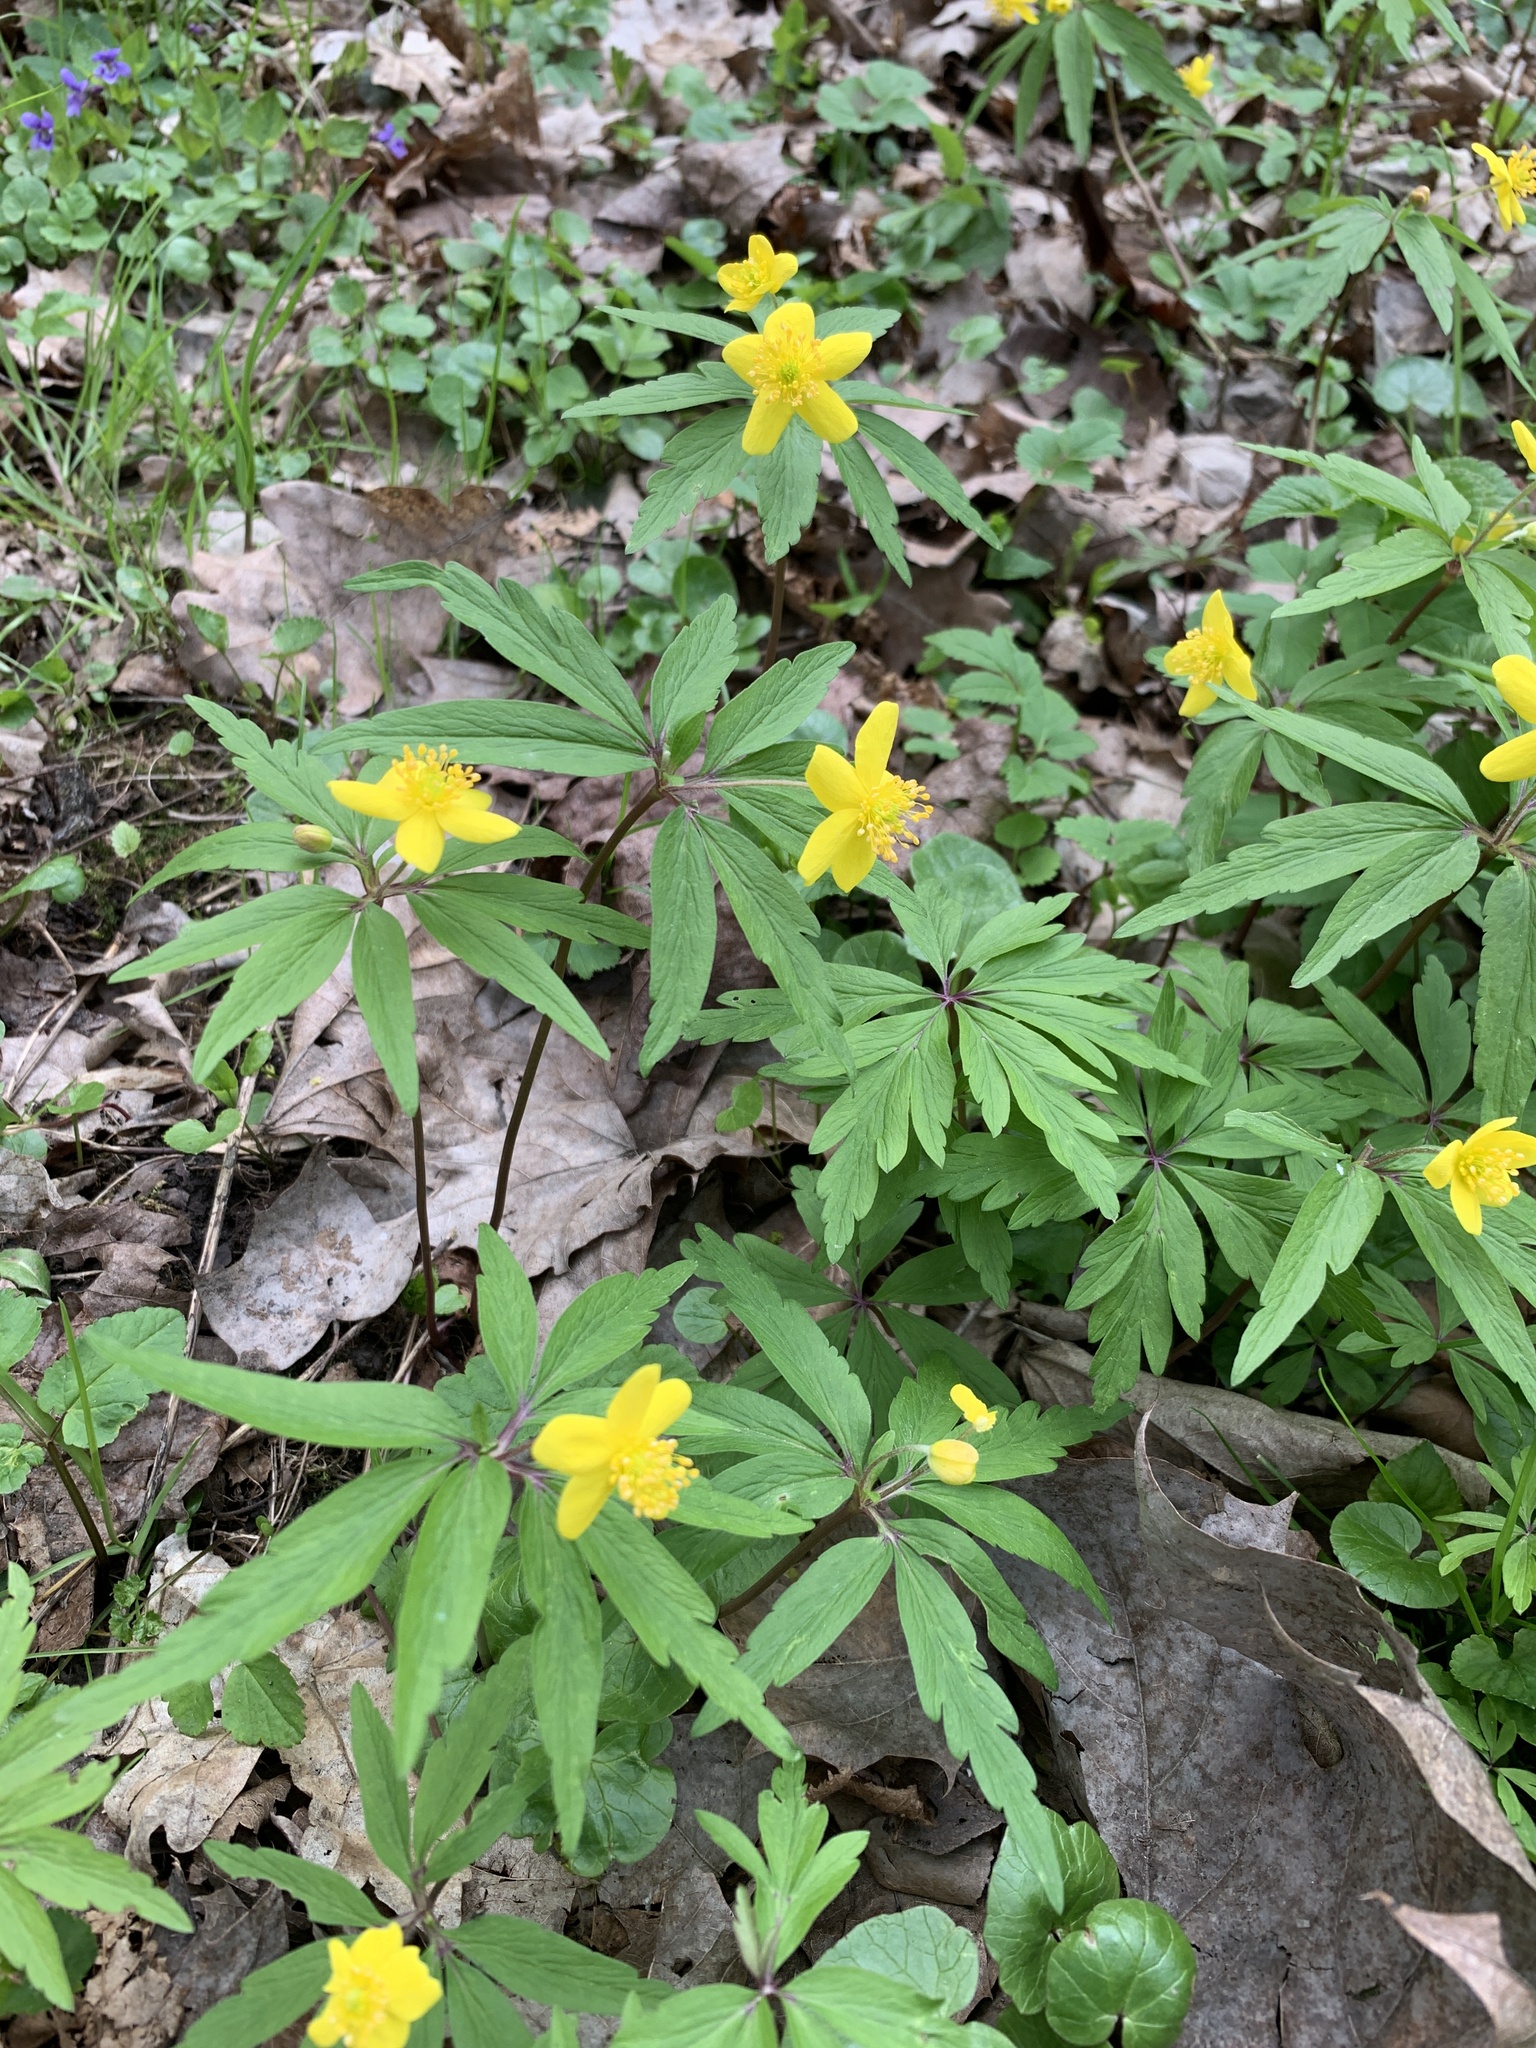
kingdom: Plantae
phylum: Tracheophyta
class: Magnoliopsida
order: Ranunculales
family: Ranunculaceae
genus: Anemone
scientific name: Anemone ranunculoides
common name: Yellow anemone
